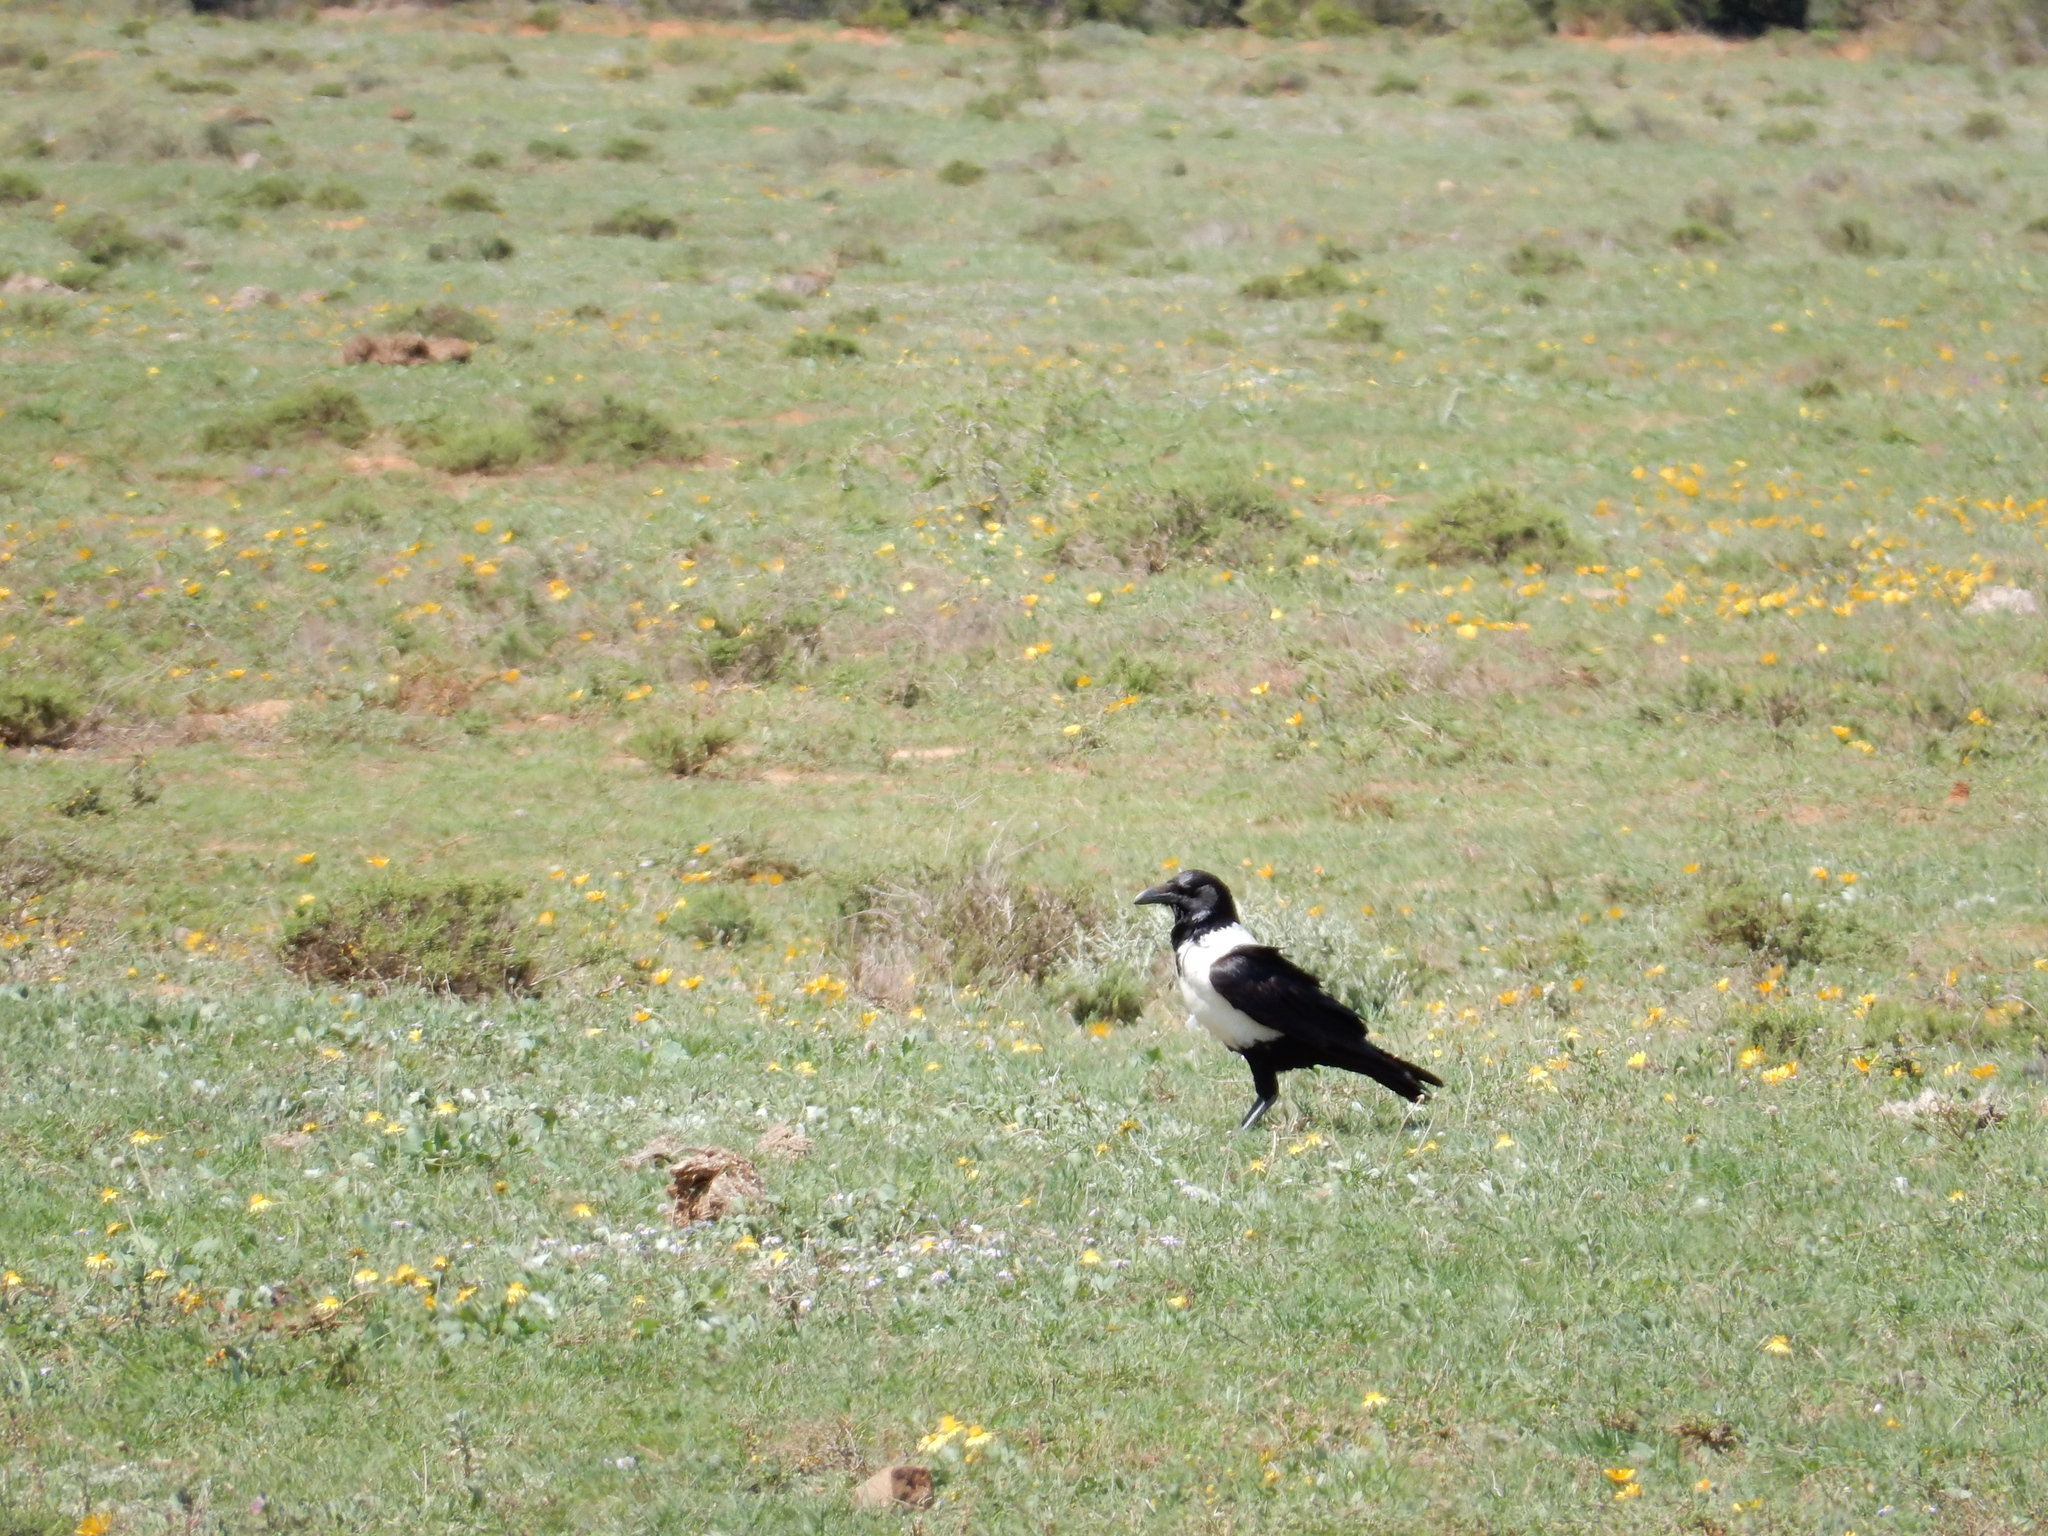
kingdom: Animalia
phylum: Chordata
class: Aves
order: Passeriformes
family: Corvidae
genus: Corvus
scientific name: Corvus albus
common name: Pied crow
